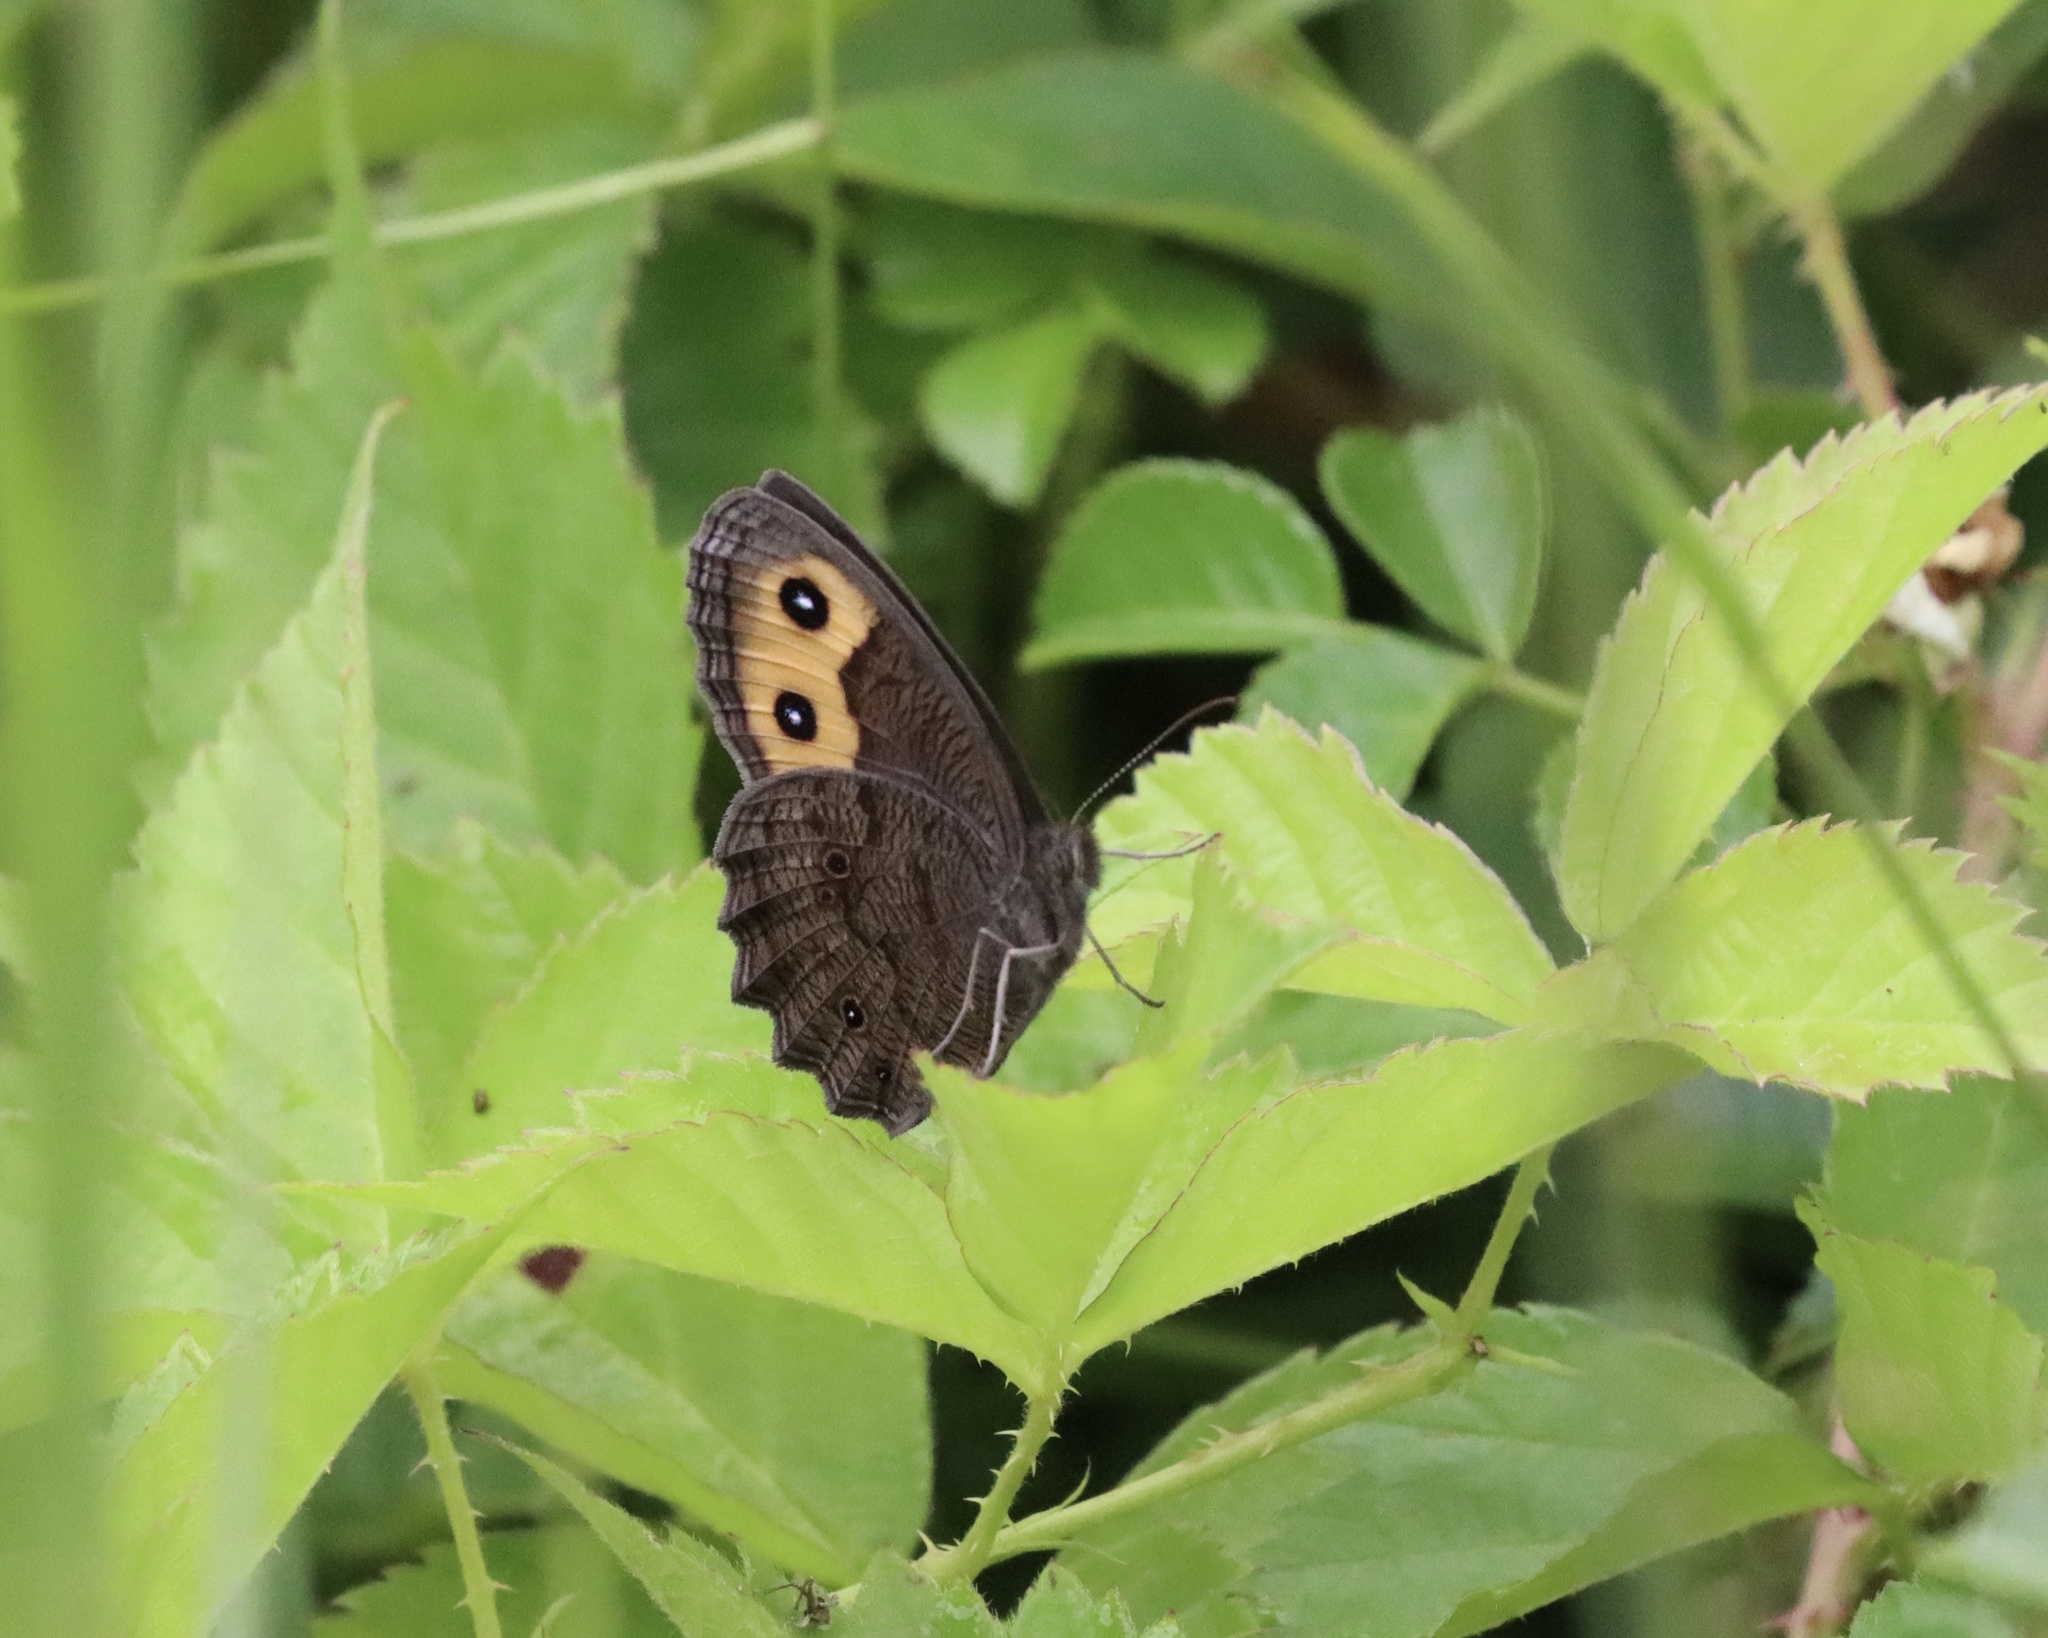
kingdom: Animalia
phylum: Arthropoda
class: Insecta
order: Lepidoptera
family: Nymphalidae
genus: Cercyonis
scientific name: Cercyonis pegala
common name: Common wood-nymph
